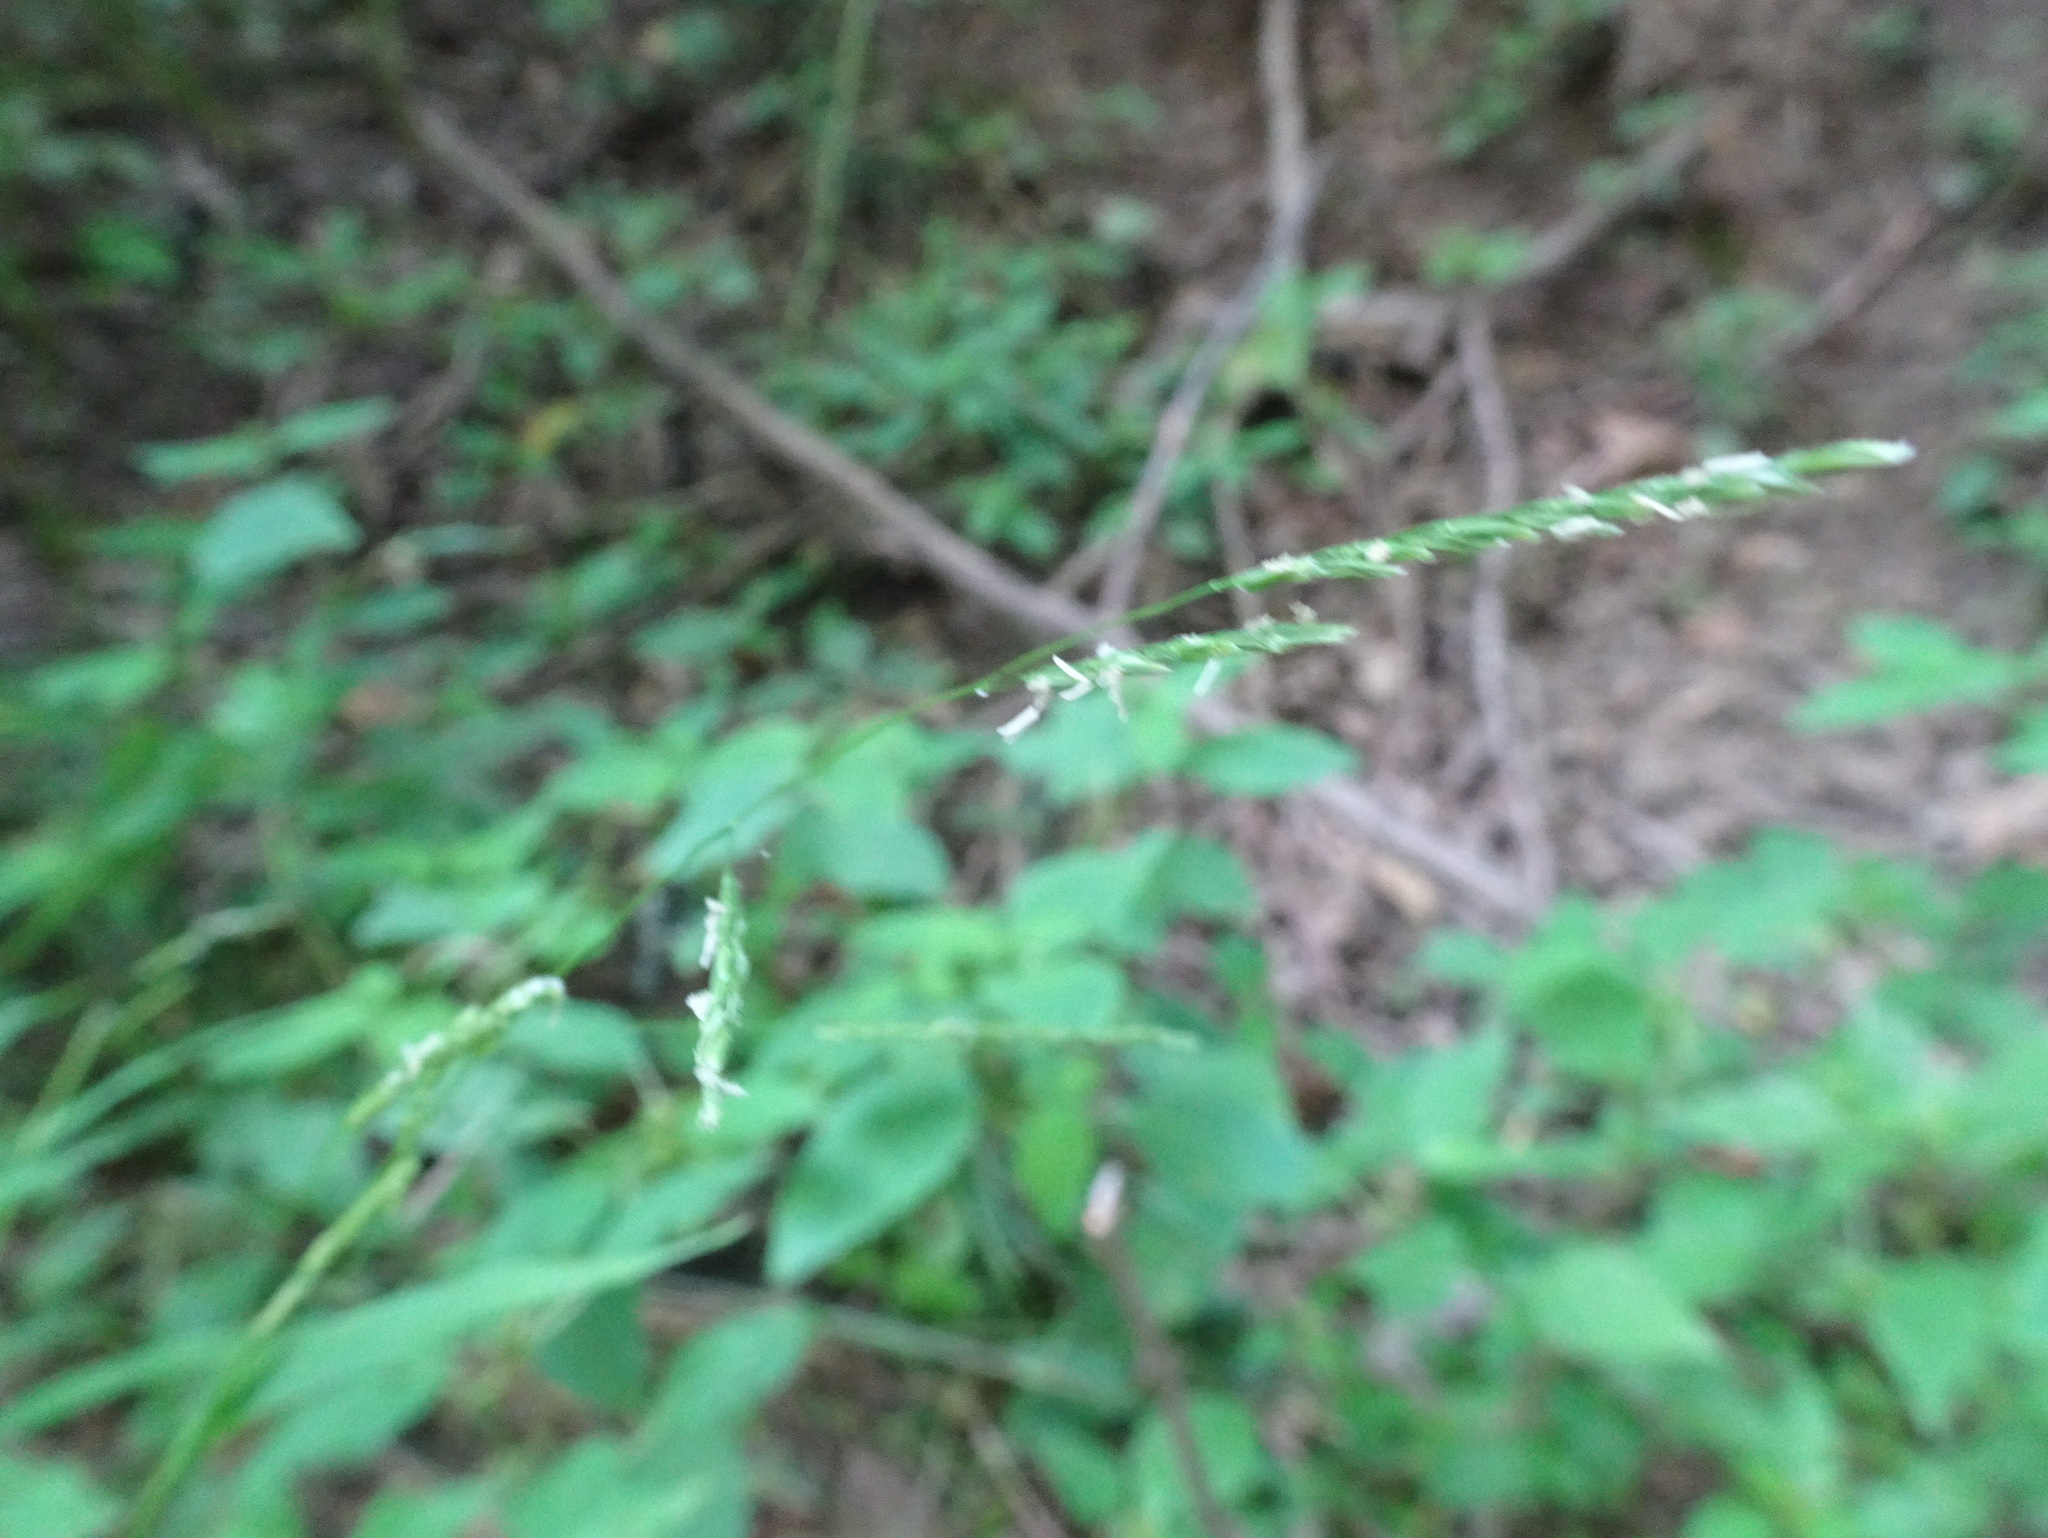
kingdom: Plantae
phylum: Tracheophyta
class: Liliopsida
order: Poales
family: Poaceae
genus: Leersia
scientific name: Leersia virginica
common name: White cutgrass
